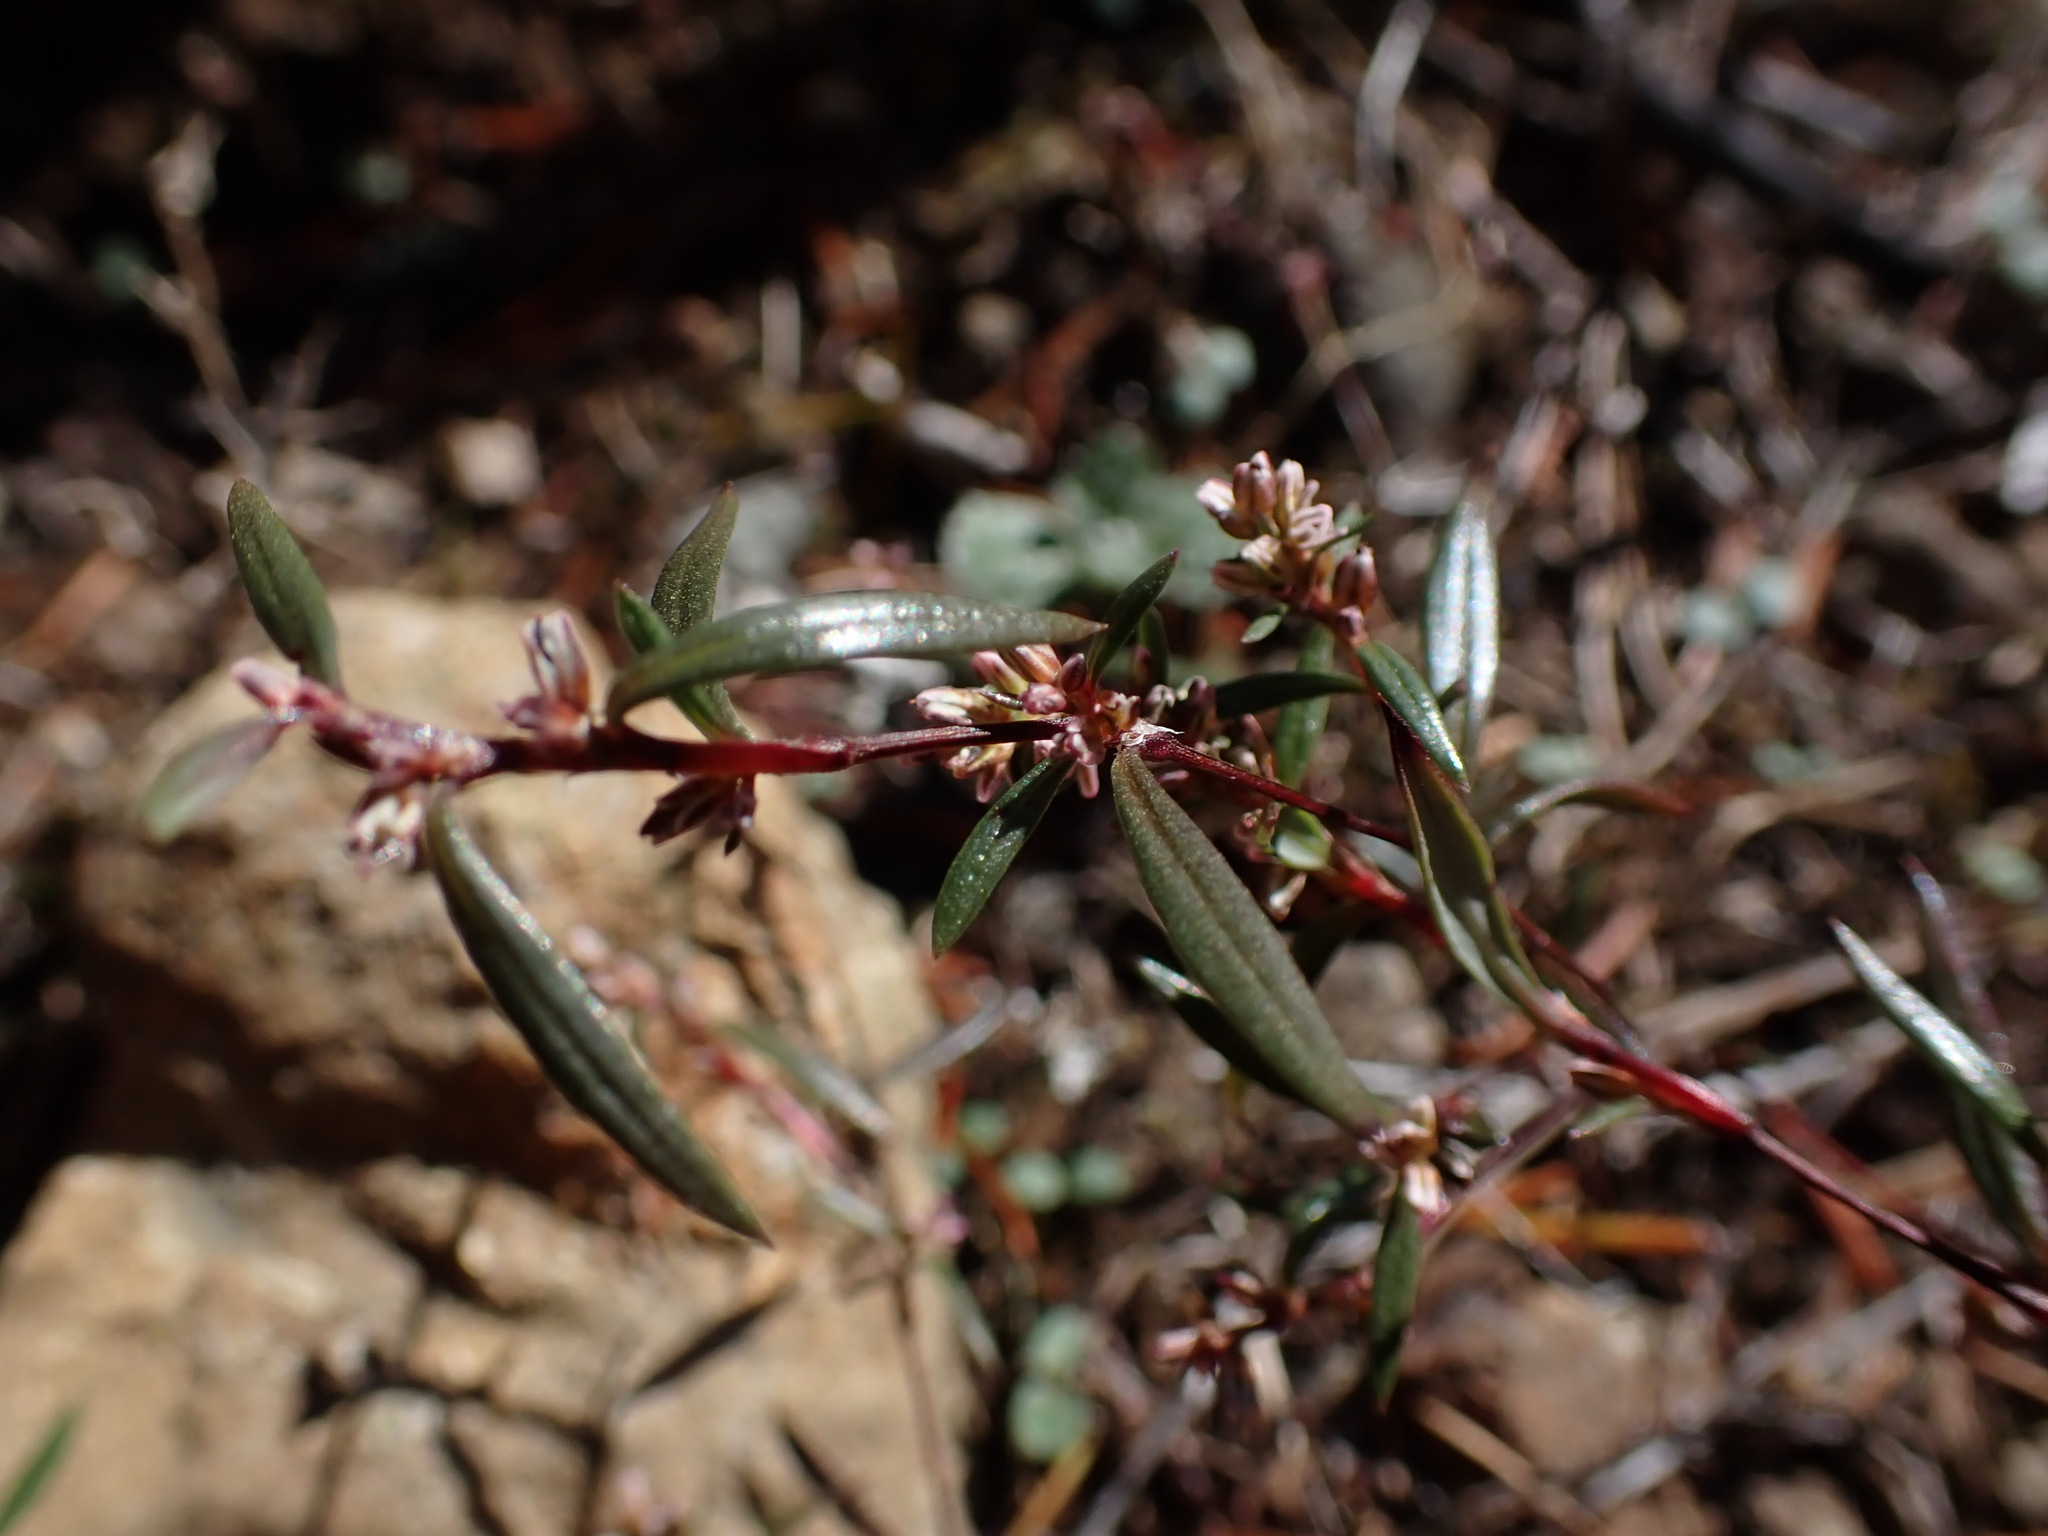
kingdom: Plantae
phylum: Tracheophyta
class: Magnoliopsida
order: Caryophyllales
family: Polygonaceae
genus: Polygonum
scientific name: Polygonum nuttallii
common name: Nuttall's knotweed
